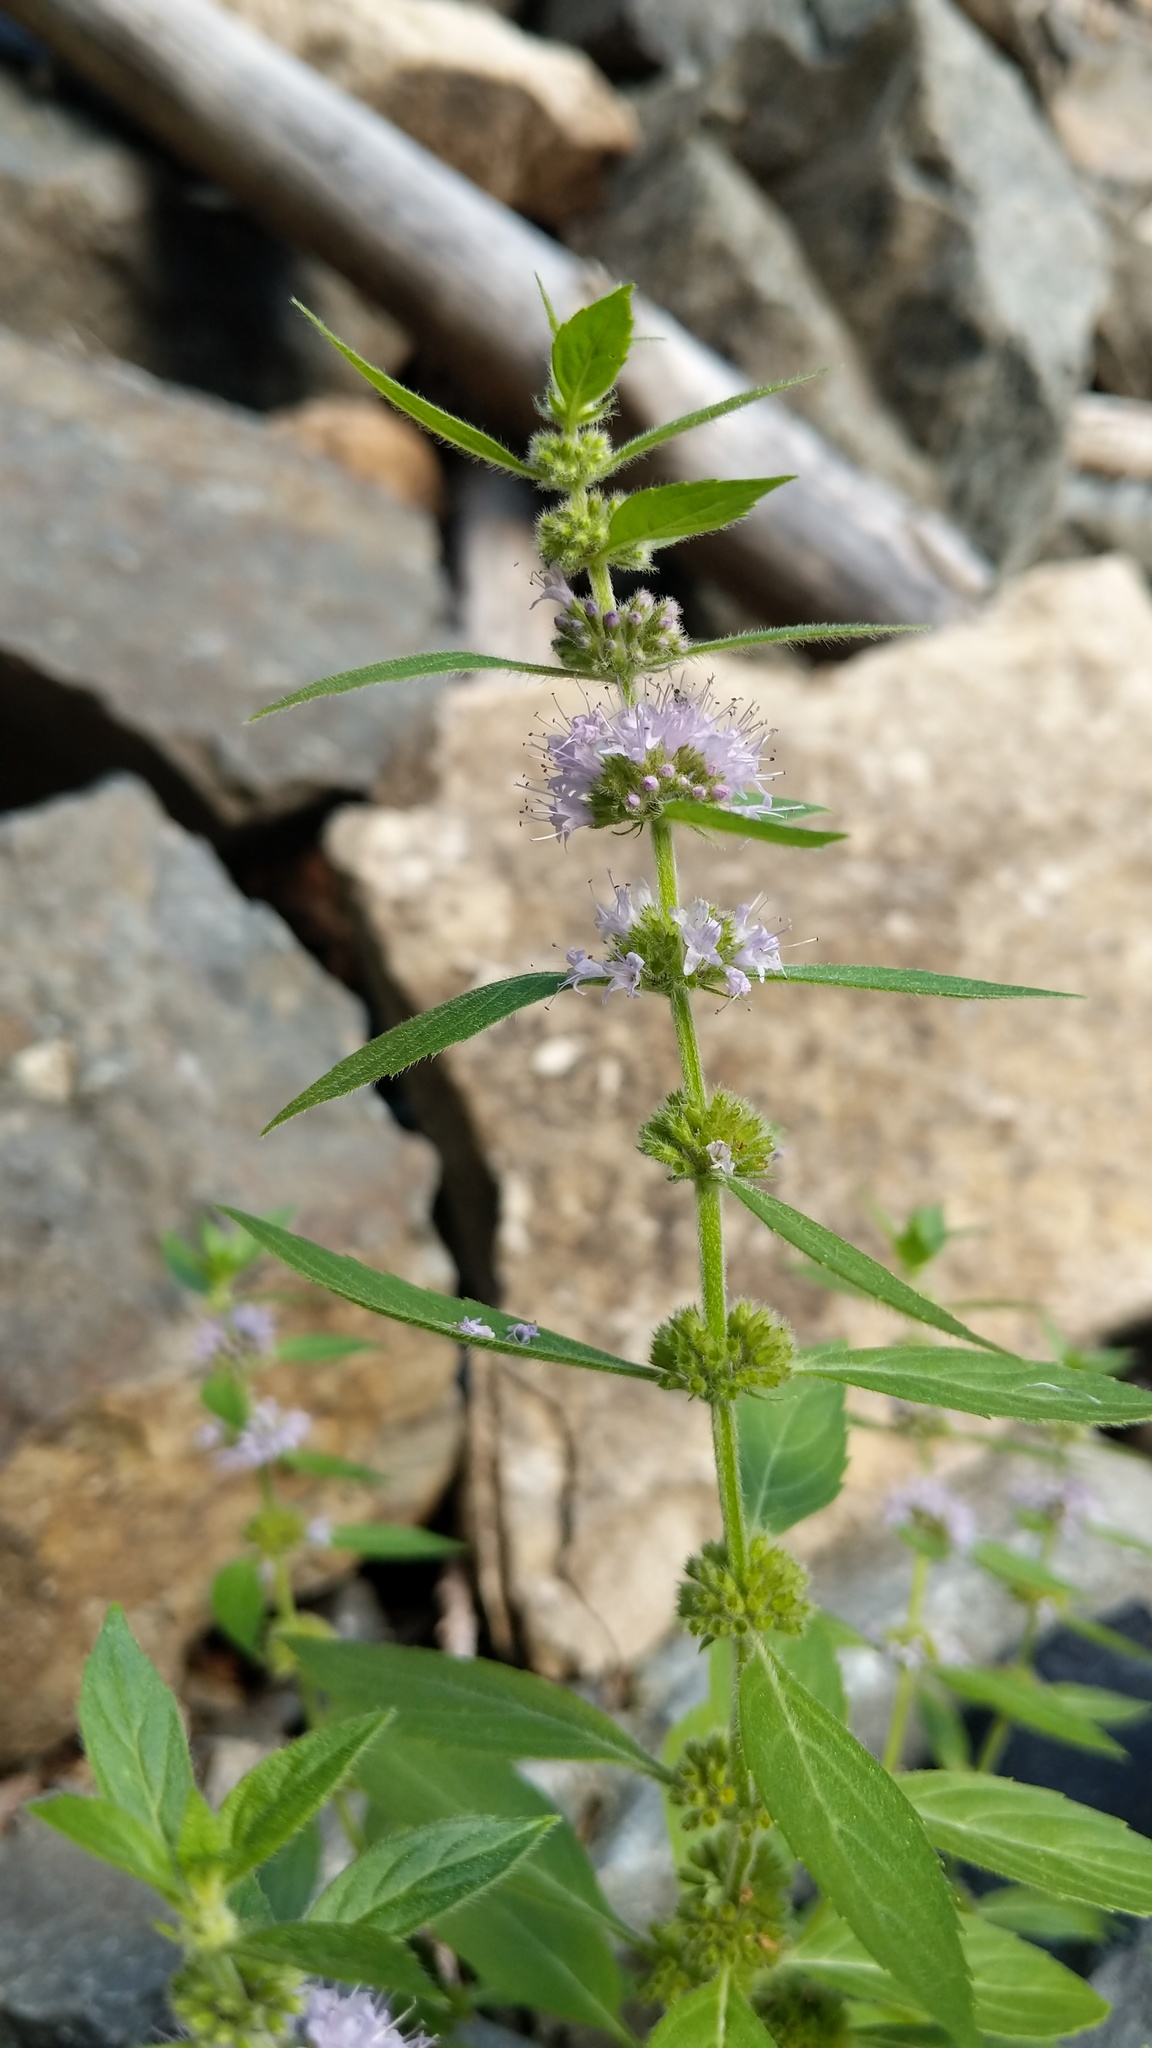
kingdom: Plantae
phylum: Tracheophyta
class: Magnoliopsida
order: Lamiales
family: Lamiaceae
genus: Mentha
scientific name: Mentha canadensis
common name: American corn mint
